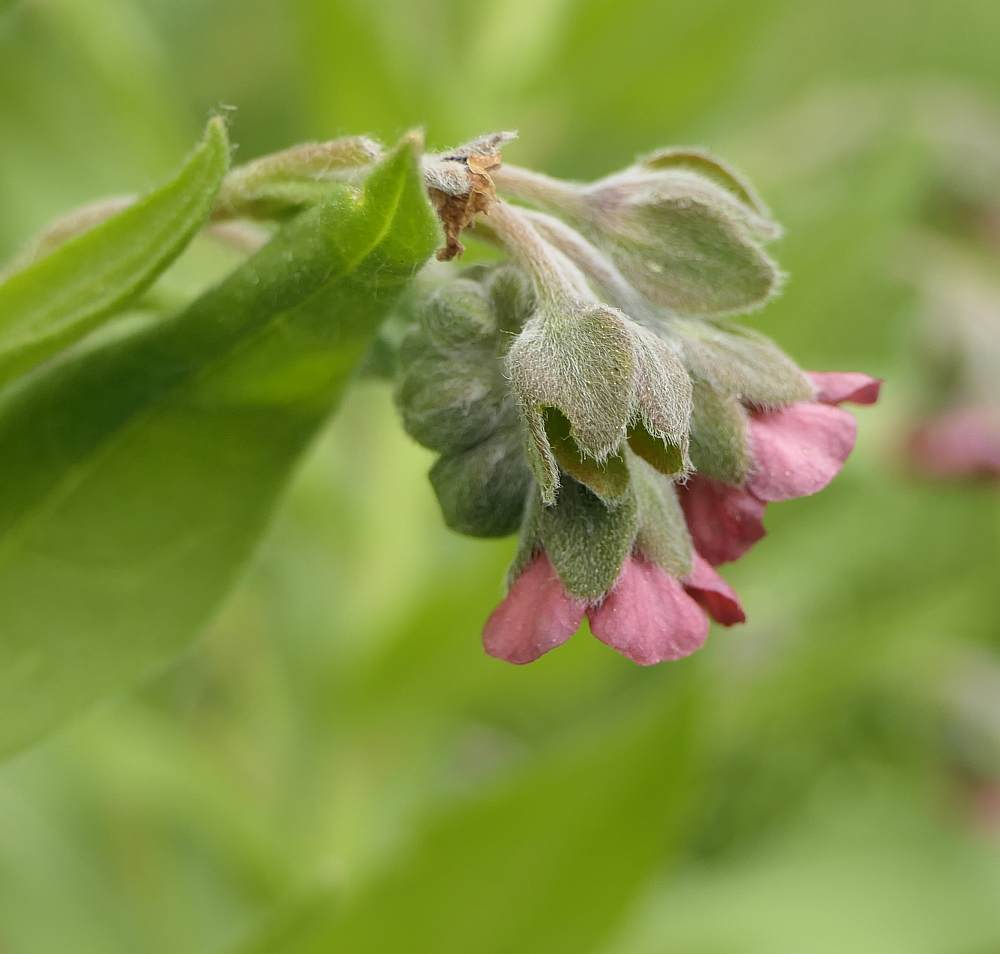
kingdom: Plantae
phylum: Tracheophyta
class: Magnoliopsida
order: Boraginales
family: Boraginaceae
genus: Cynoglossum
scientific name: Cynoglossum officinale
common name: Hound's-tongue
